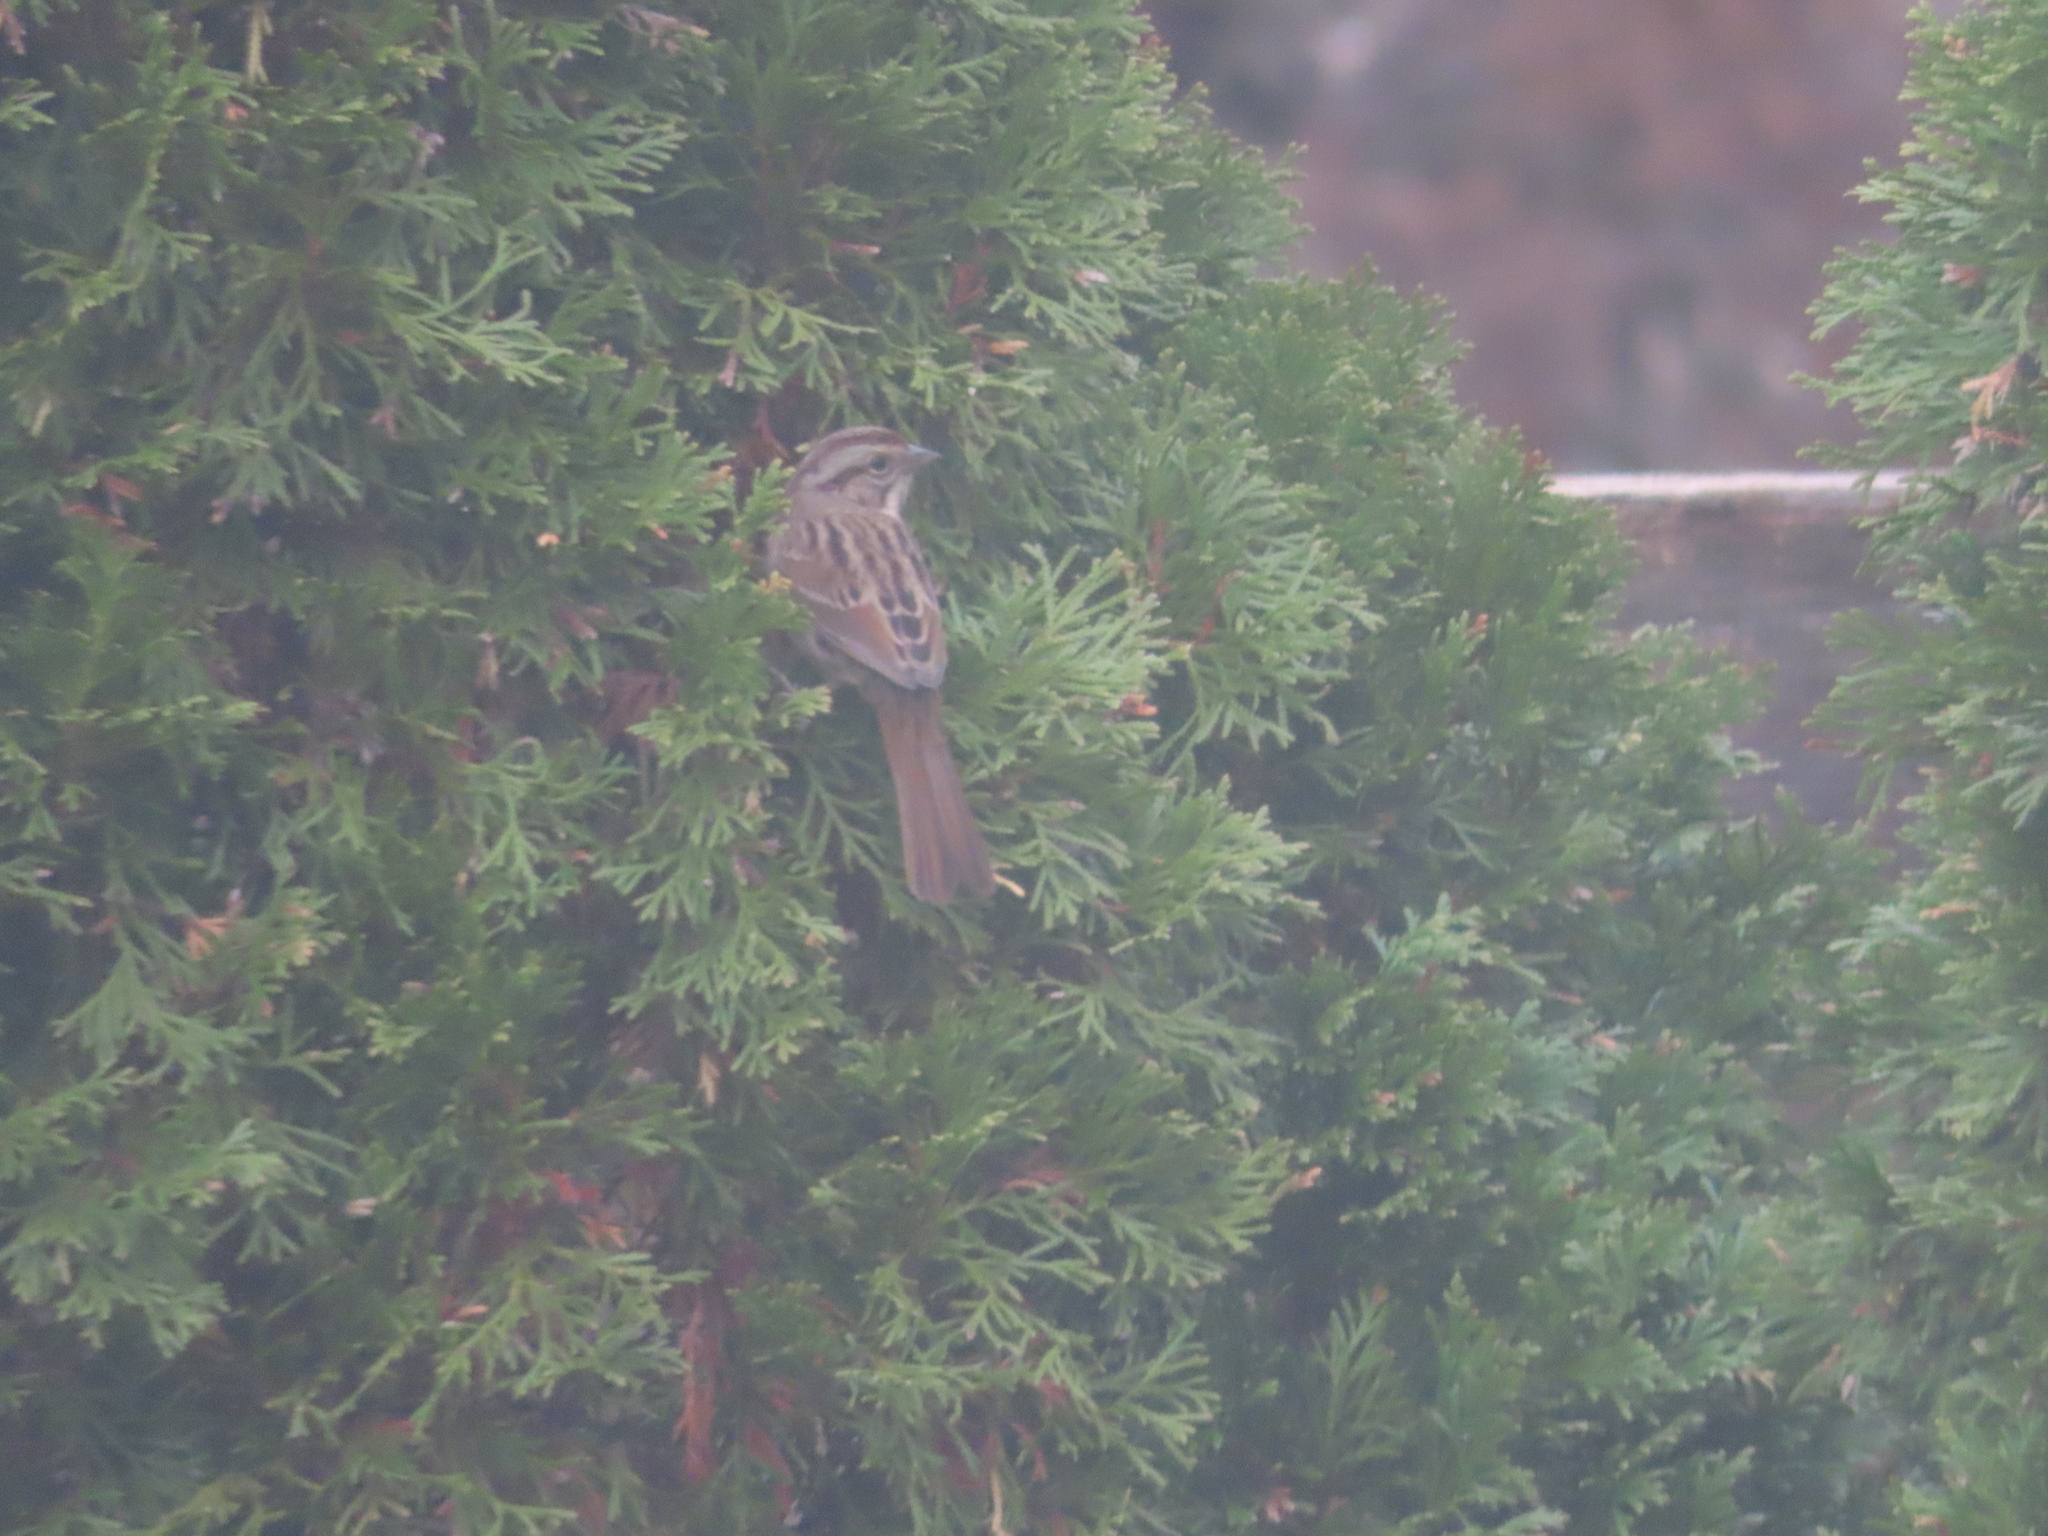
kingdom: Animalia
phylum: Chordata
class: Aves
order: Passeriformes
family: Passerellidae
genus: Melospiza
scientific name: Melospiza melodia
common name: Song sparrow
